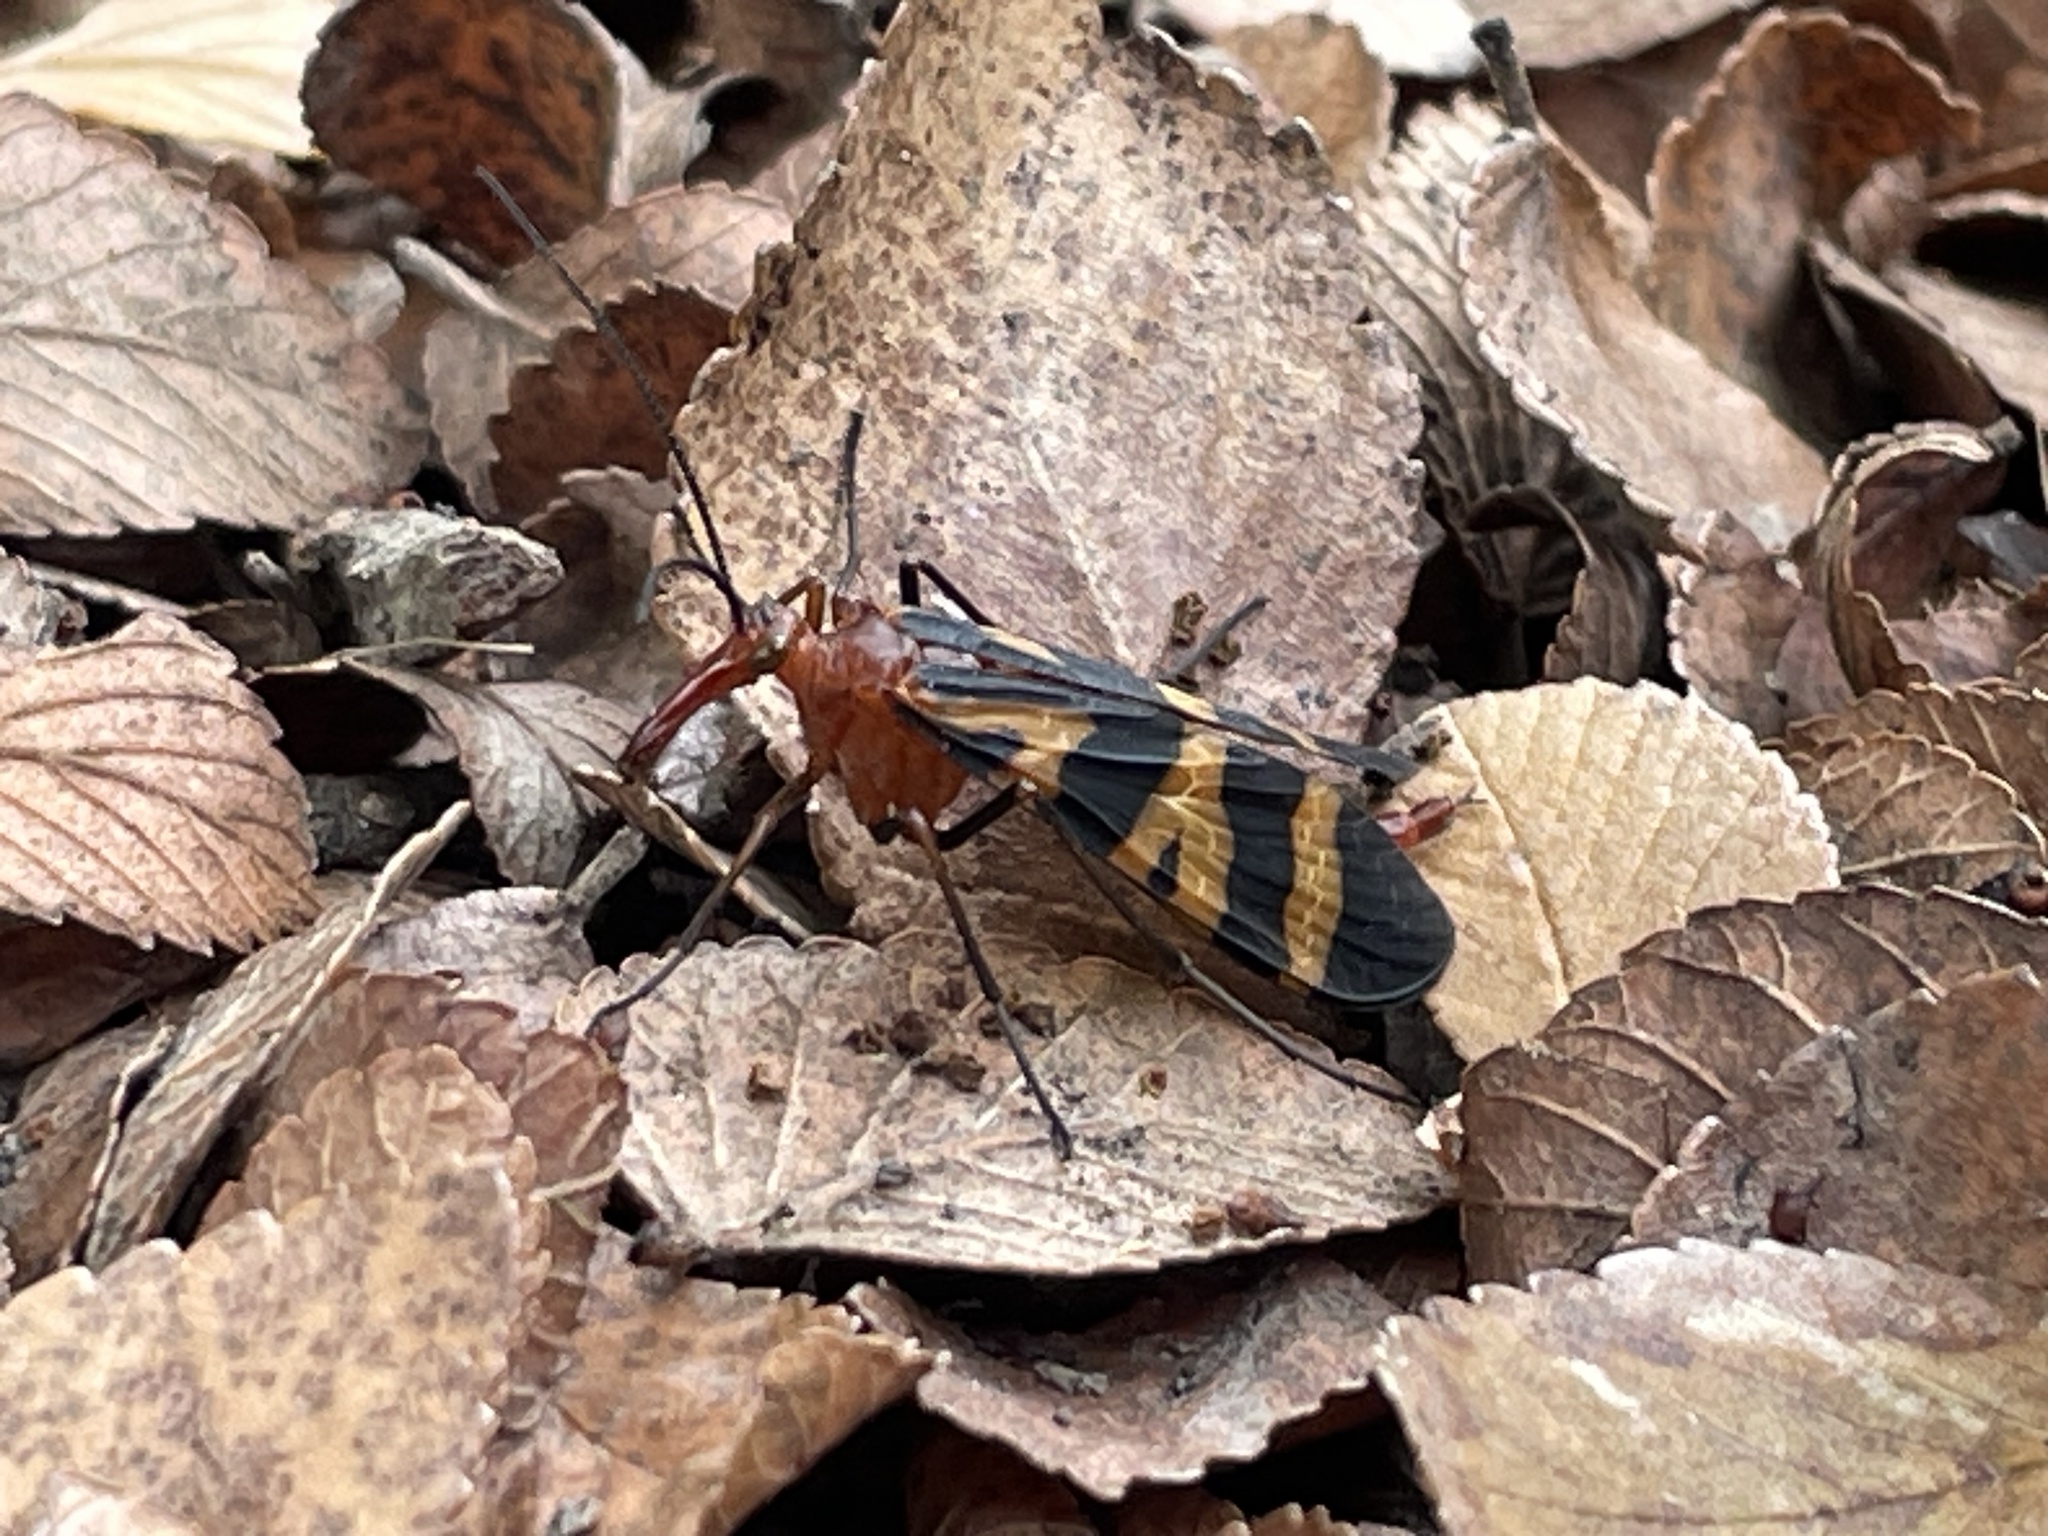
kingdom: Animalia
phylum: Arthropoda
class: Insecta
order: Mecoptera
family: Panorpidae
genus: Panorpa
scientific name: Panorpa nuptialis
